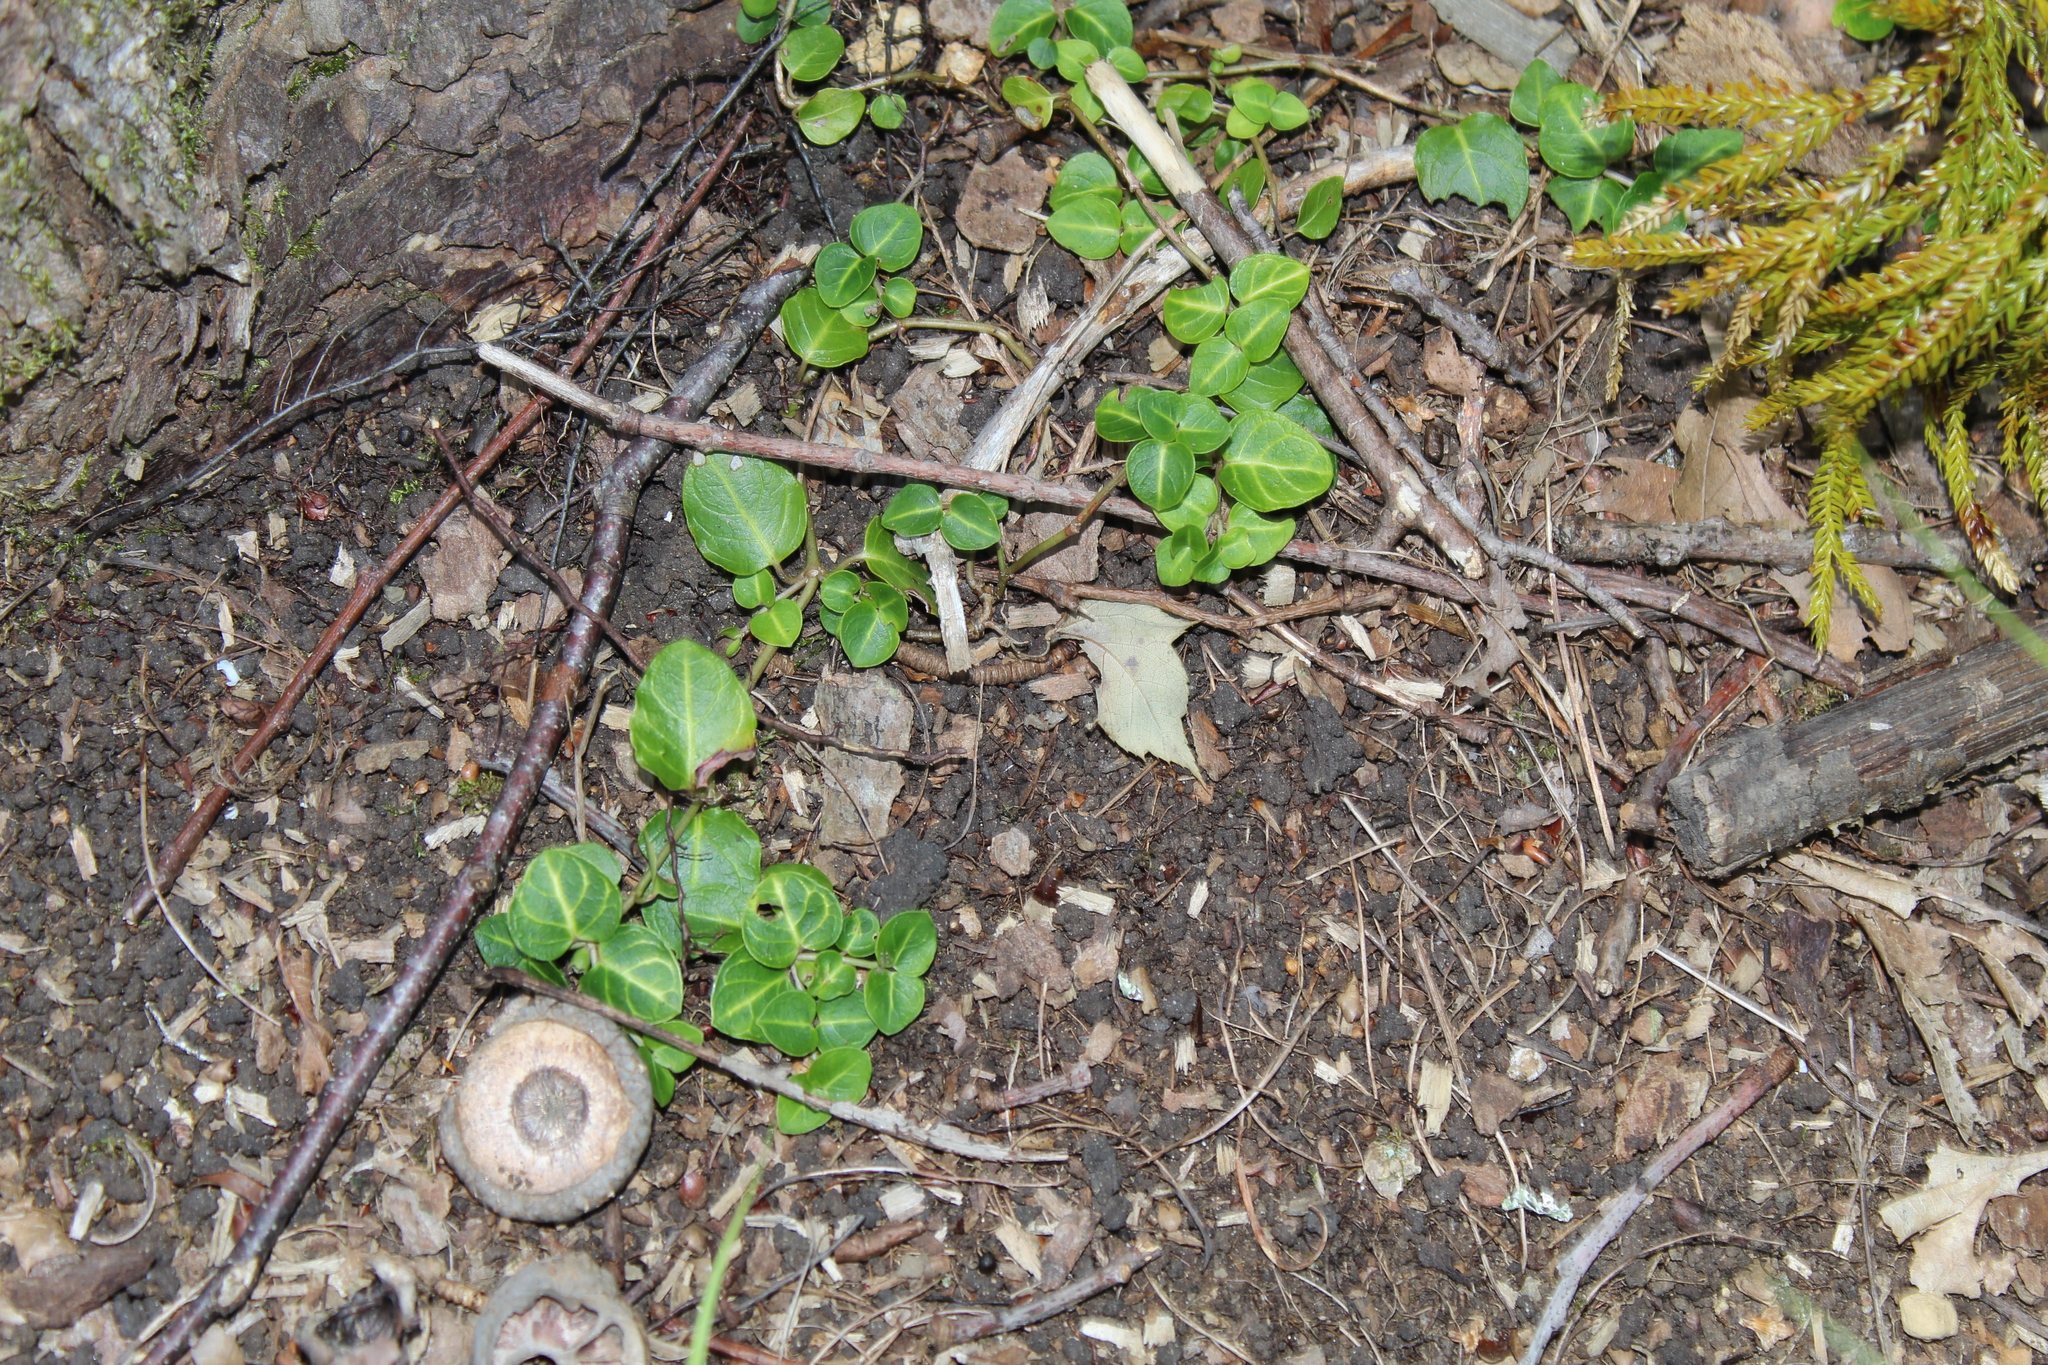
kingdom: Plantae
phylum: Tracheophyta
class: Magnoliopsida
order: Gentianales
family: Rubiaceae
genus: Mitchella
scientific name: Mitchella repens
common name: Partridge-berry
